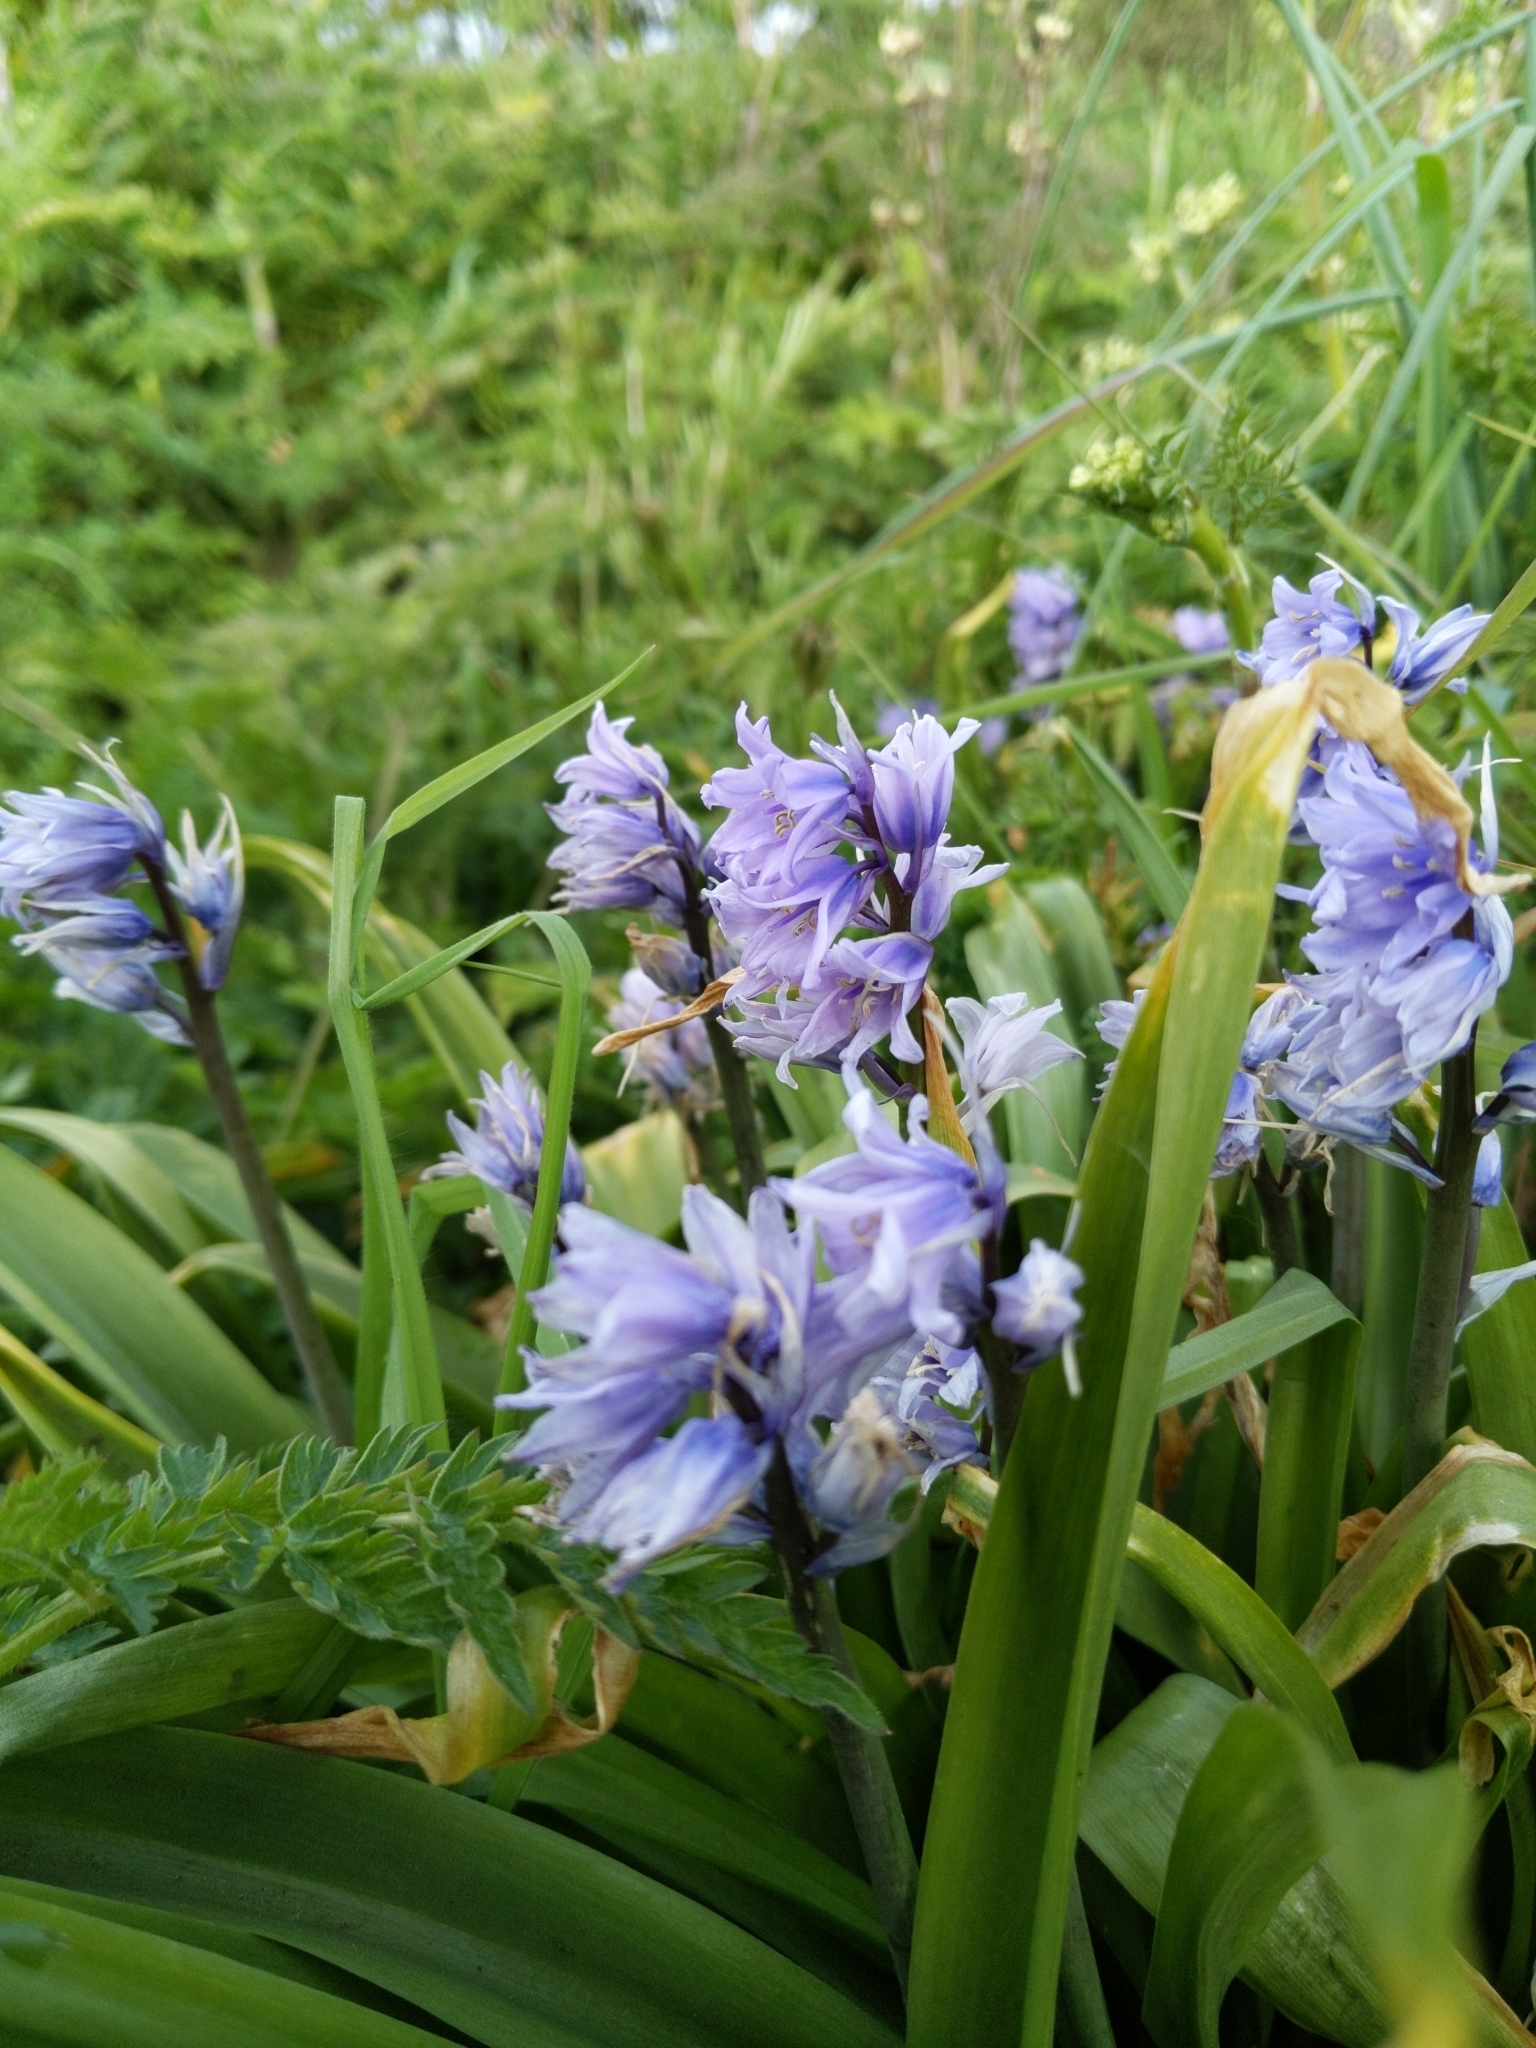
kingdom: Plantae
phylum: Tracheophyta
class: Liliopsida
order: Asparagales
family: Asparagaceae
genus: Hyacinthoides
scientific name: Hyacinthoides hispanica
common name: Spanish bluebell
